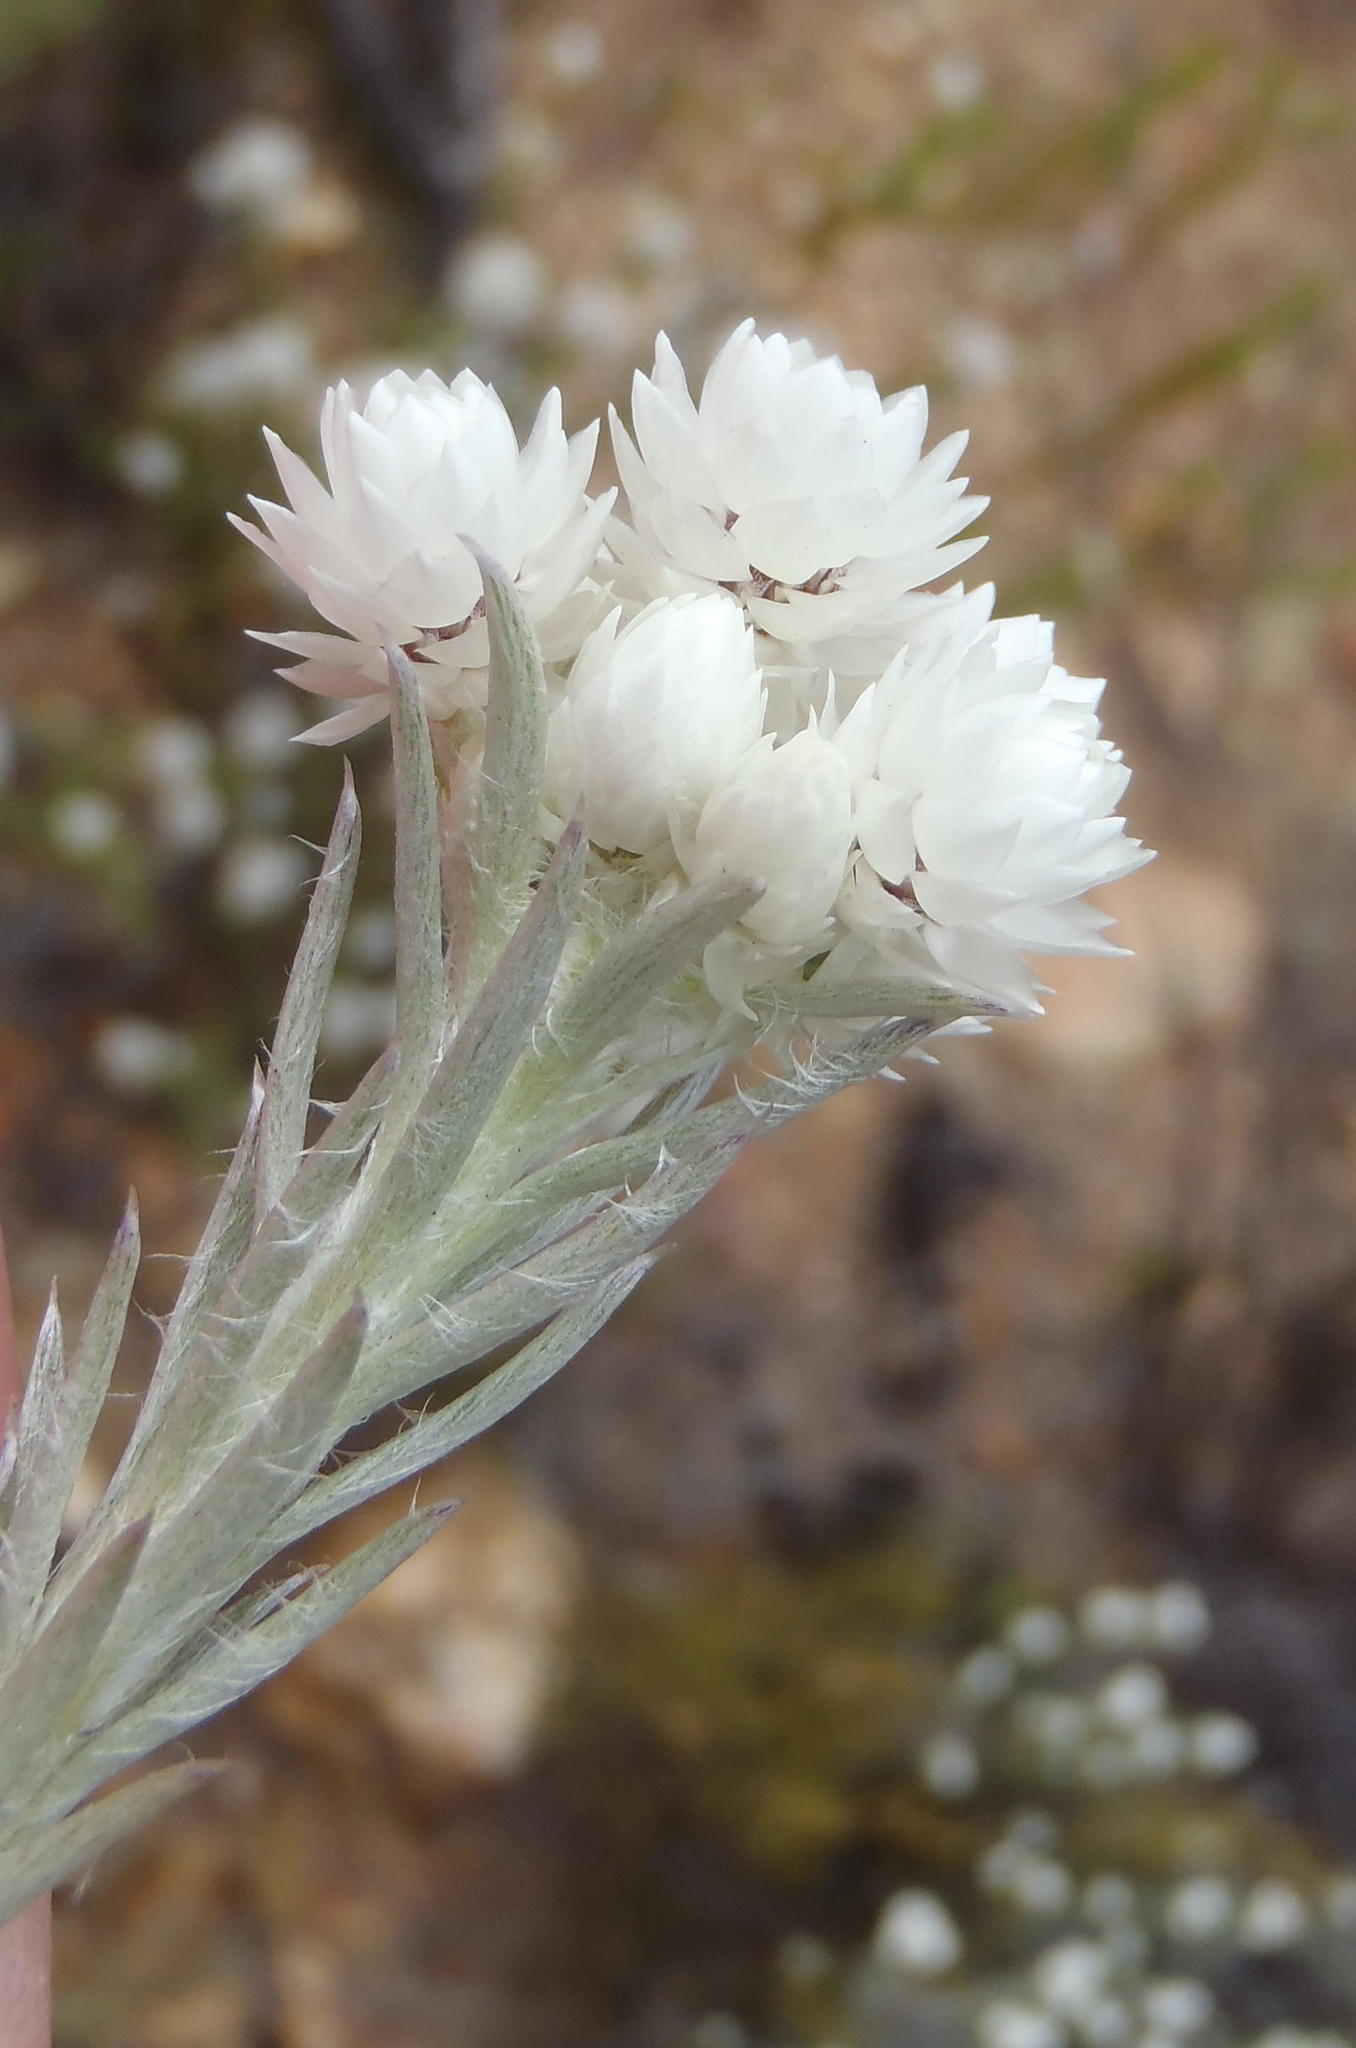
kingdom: Plantae
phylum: Tracheophyta
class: Magnoliopsida
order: Asterales
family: Asteraceae
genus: Achyranthemum
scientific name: Achyranthemum paniculatum
